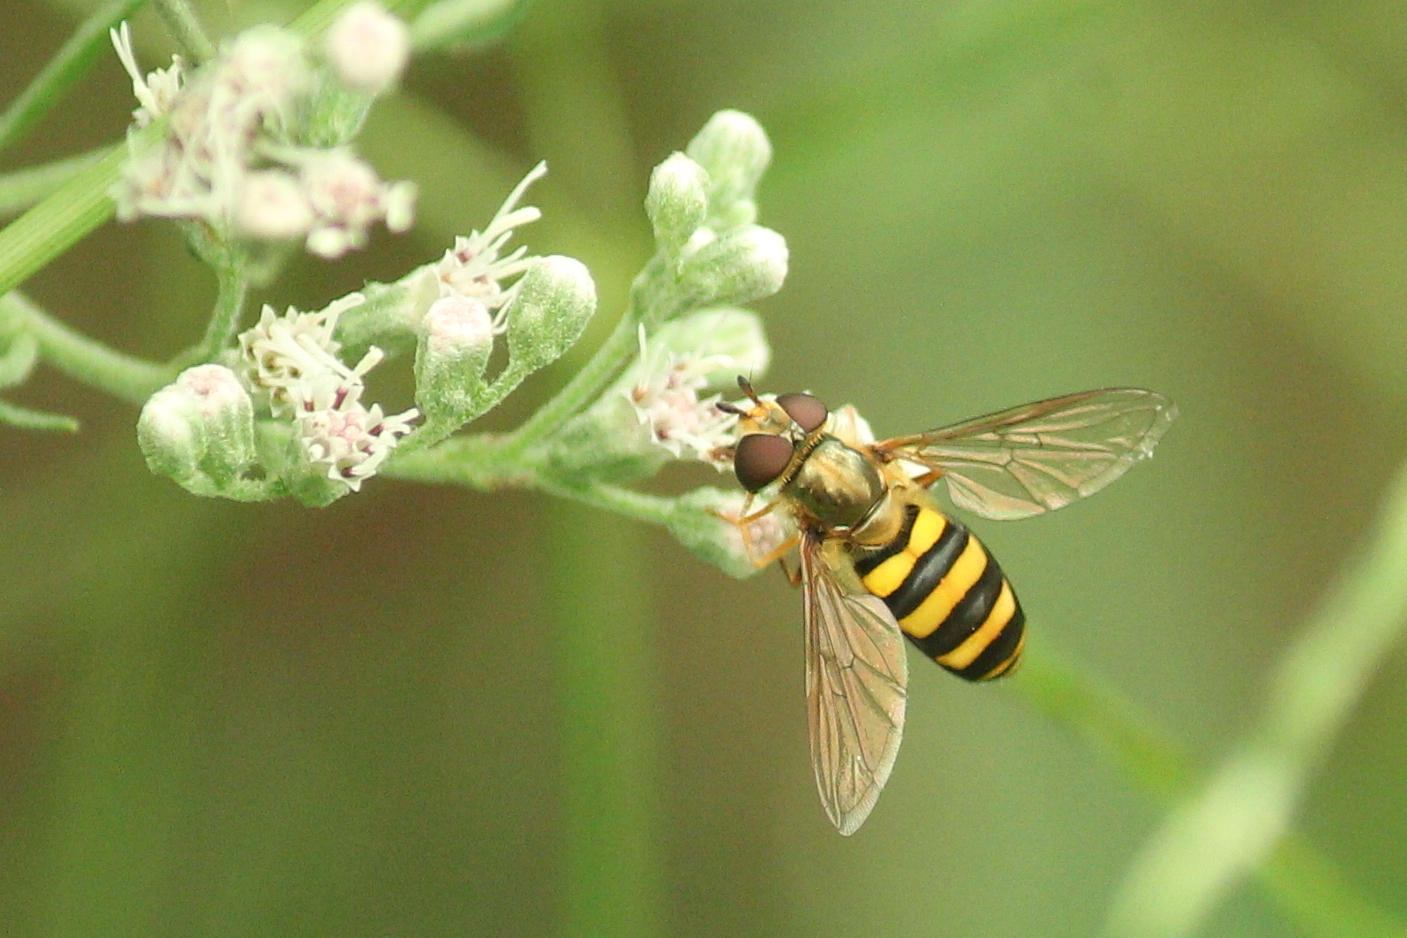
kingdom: Animalia
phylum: Arthropoda
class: Insecta
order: Diptera
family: Syrphidae
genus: Eupeodes
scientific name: Eupeodes
